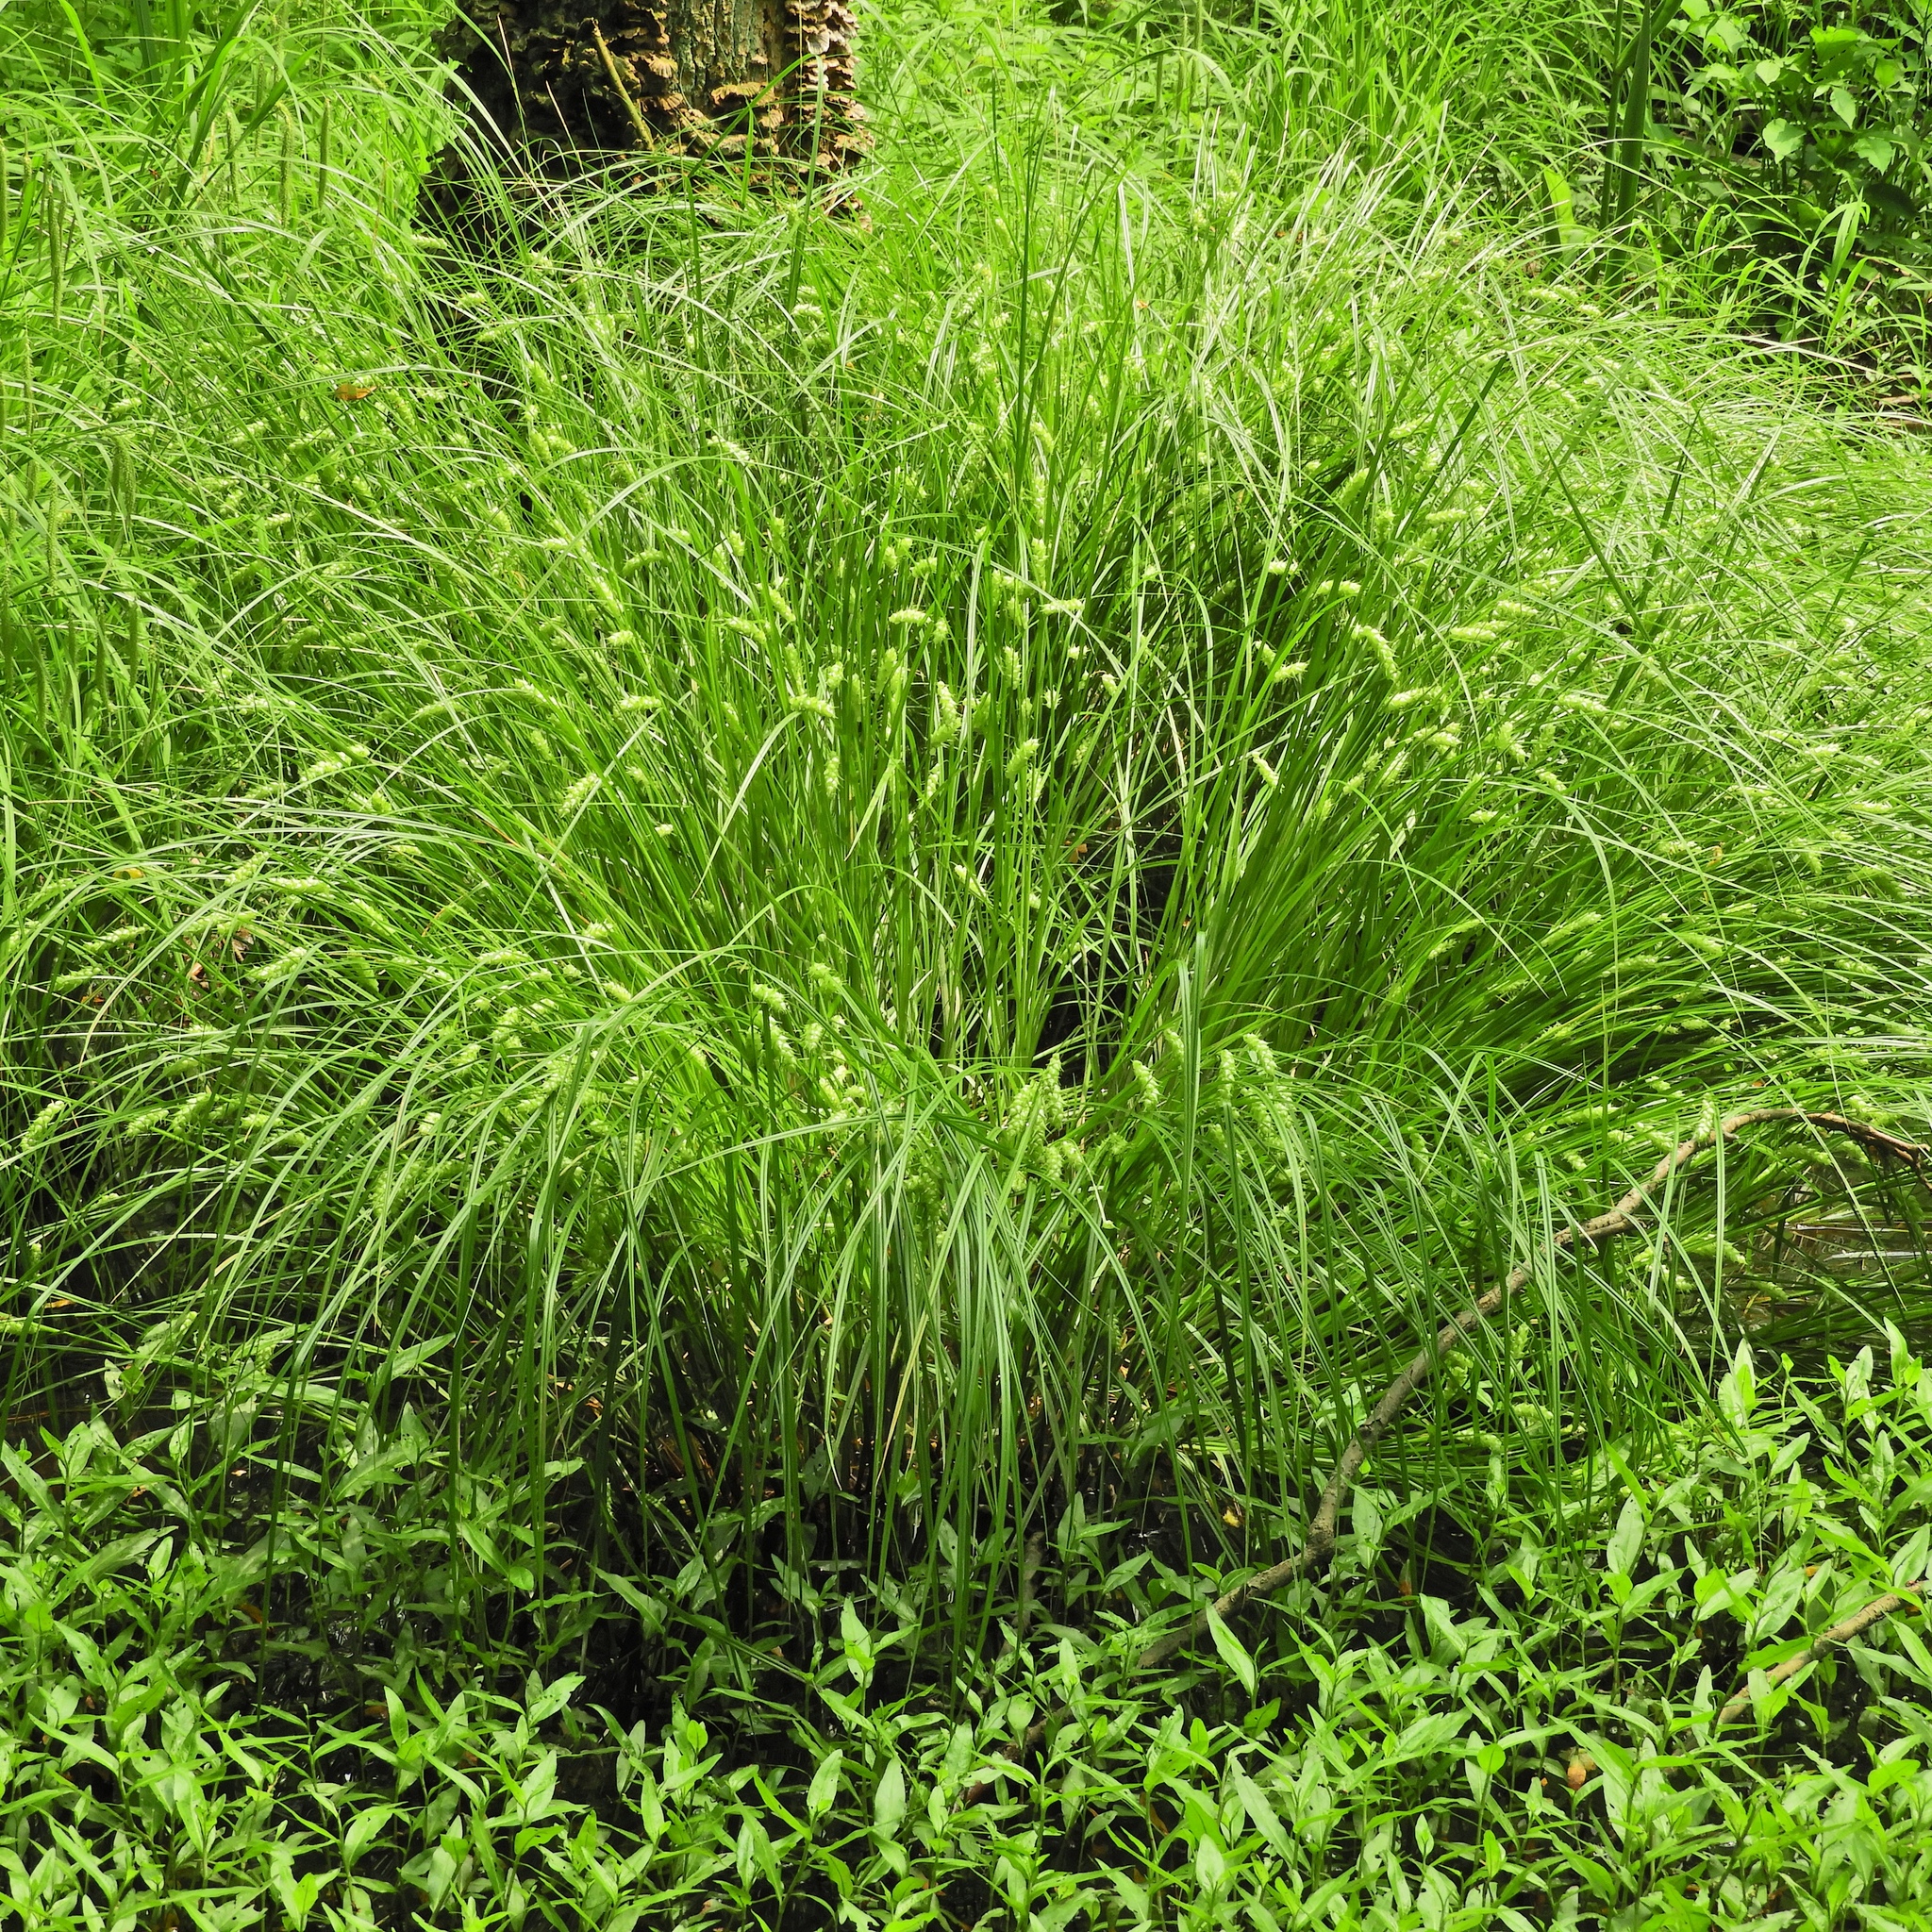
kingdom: Plantae
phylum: Tracheophyta
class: Liliopsida
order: Poales
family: Cyperaceae
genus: Carex
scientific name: Carex tuckermanii
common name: Tuckerman's sedge
